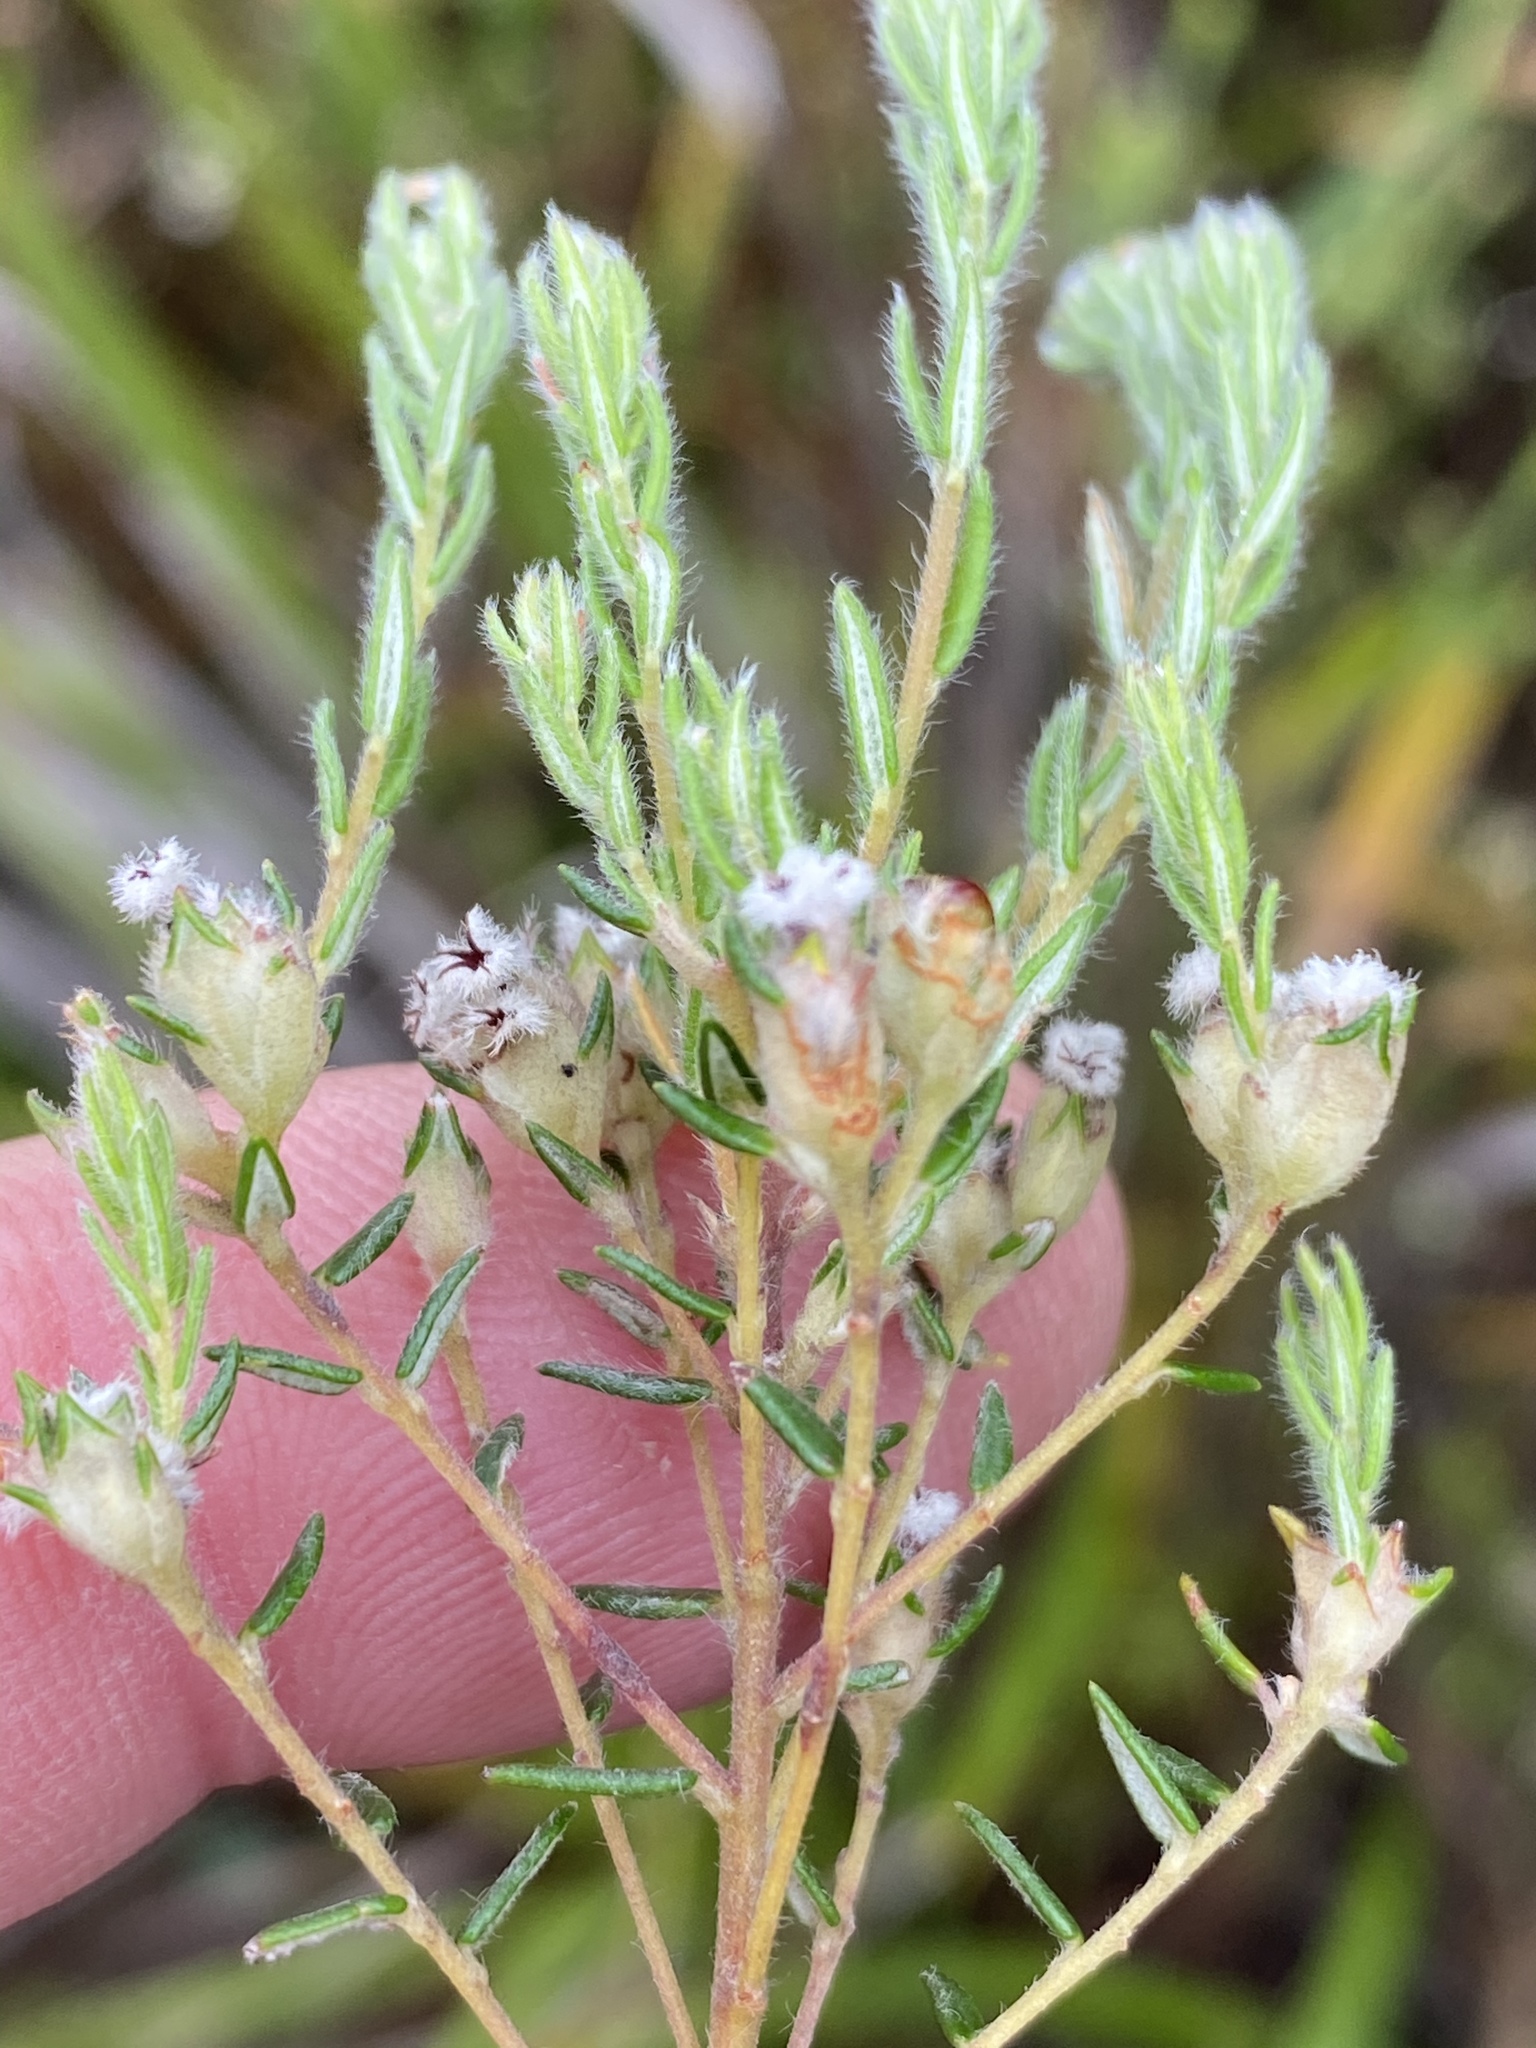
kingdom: Plantae
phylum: Tracheophyta
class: Magnoliopsida
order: Rosales
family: Rhamnaceae
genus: Phylica
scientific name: Phylica virgata
